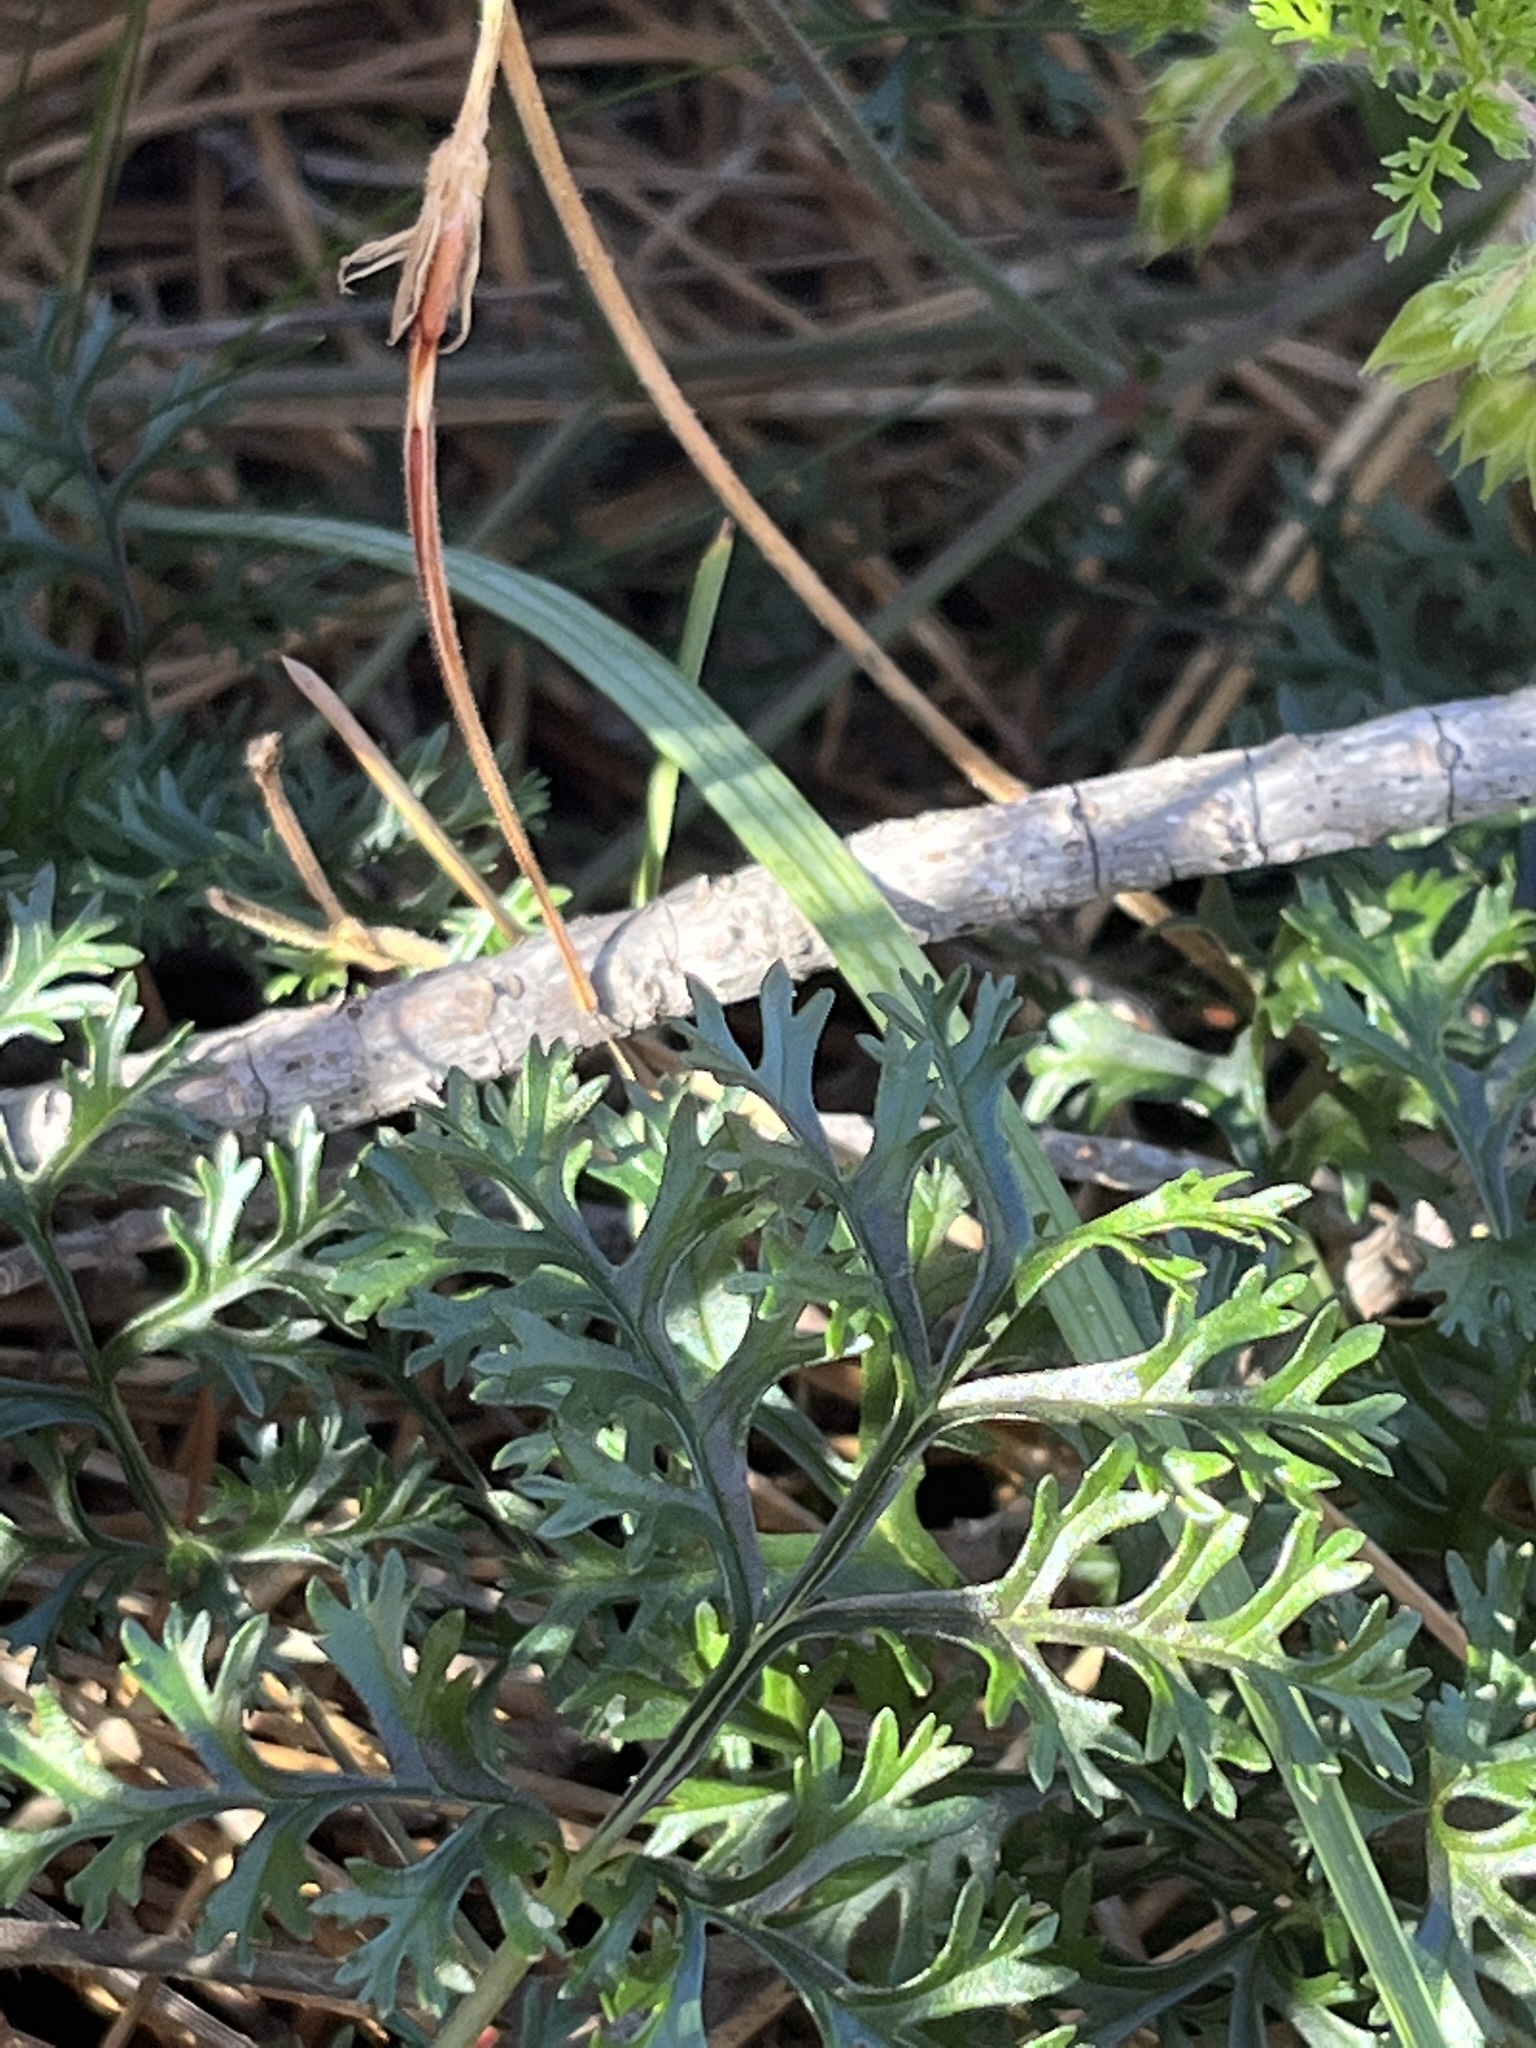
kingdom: Plantae
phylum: Tracheophyta
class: Magnoliopsida
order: Geraniales
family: Geraniaceae
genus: Pelargonium
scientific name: Pelargonium myrrhifolium
